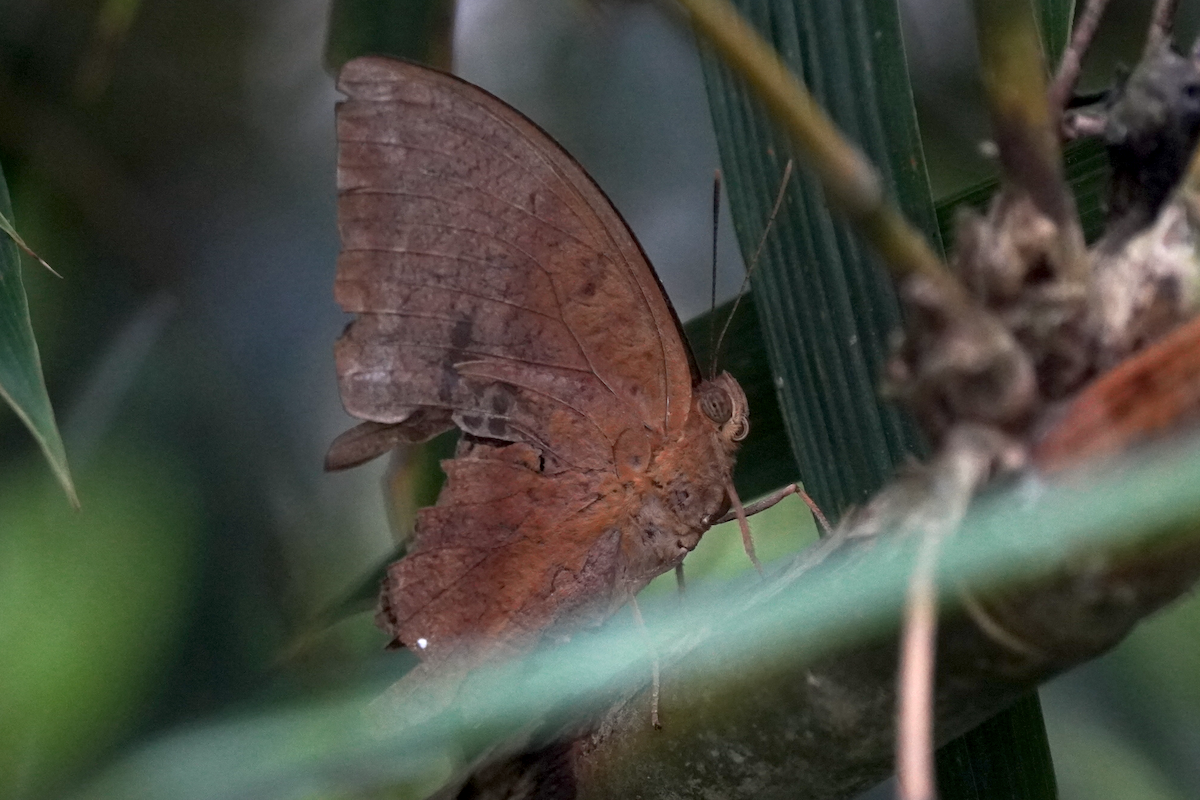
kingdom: Animalia
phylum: Arthropoda
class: Insecta
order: Lepidoptera
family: Nymphalidae
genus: Discophora
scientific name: Discophora sondaica
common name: Common duffer
